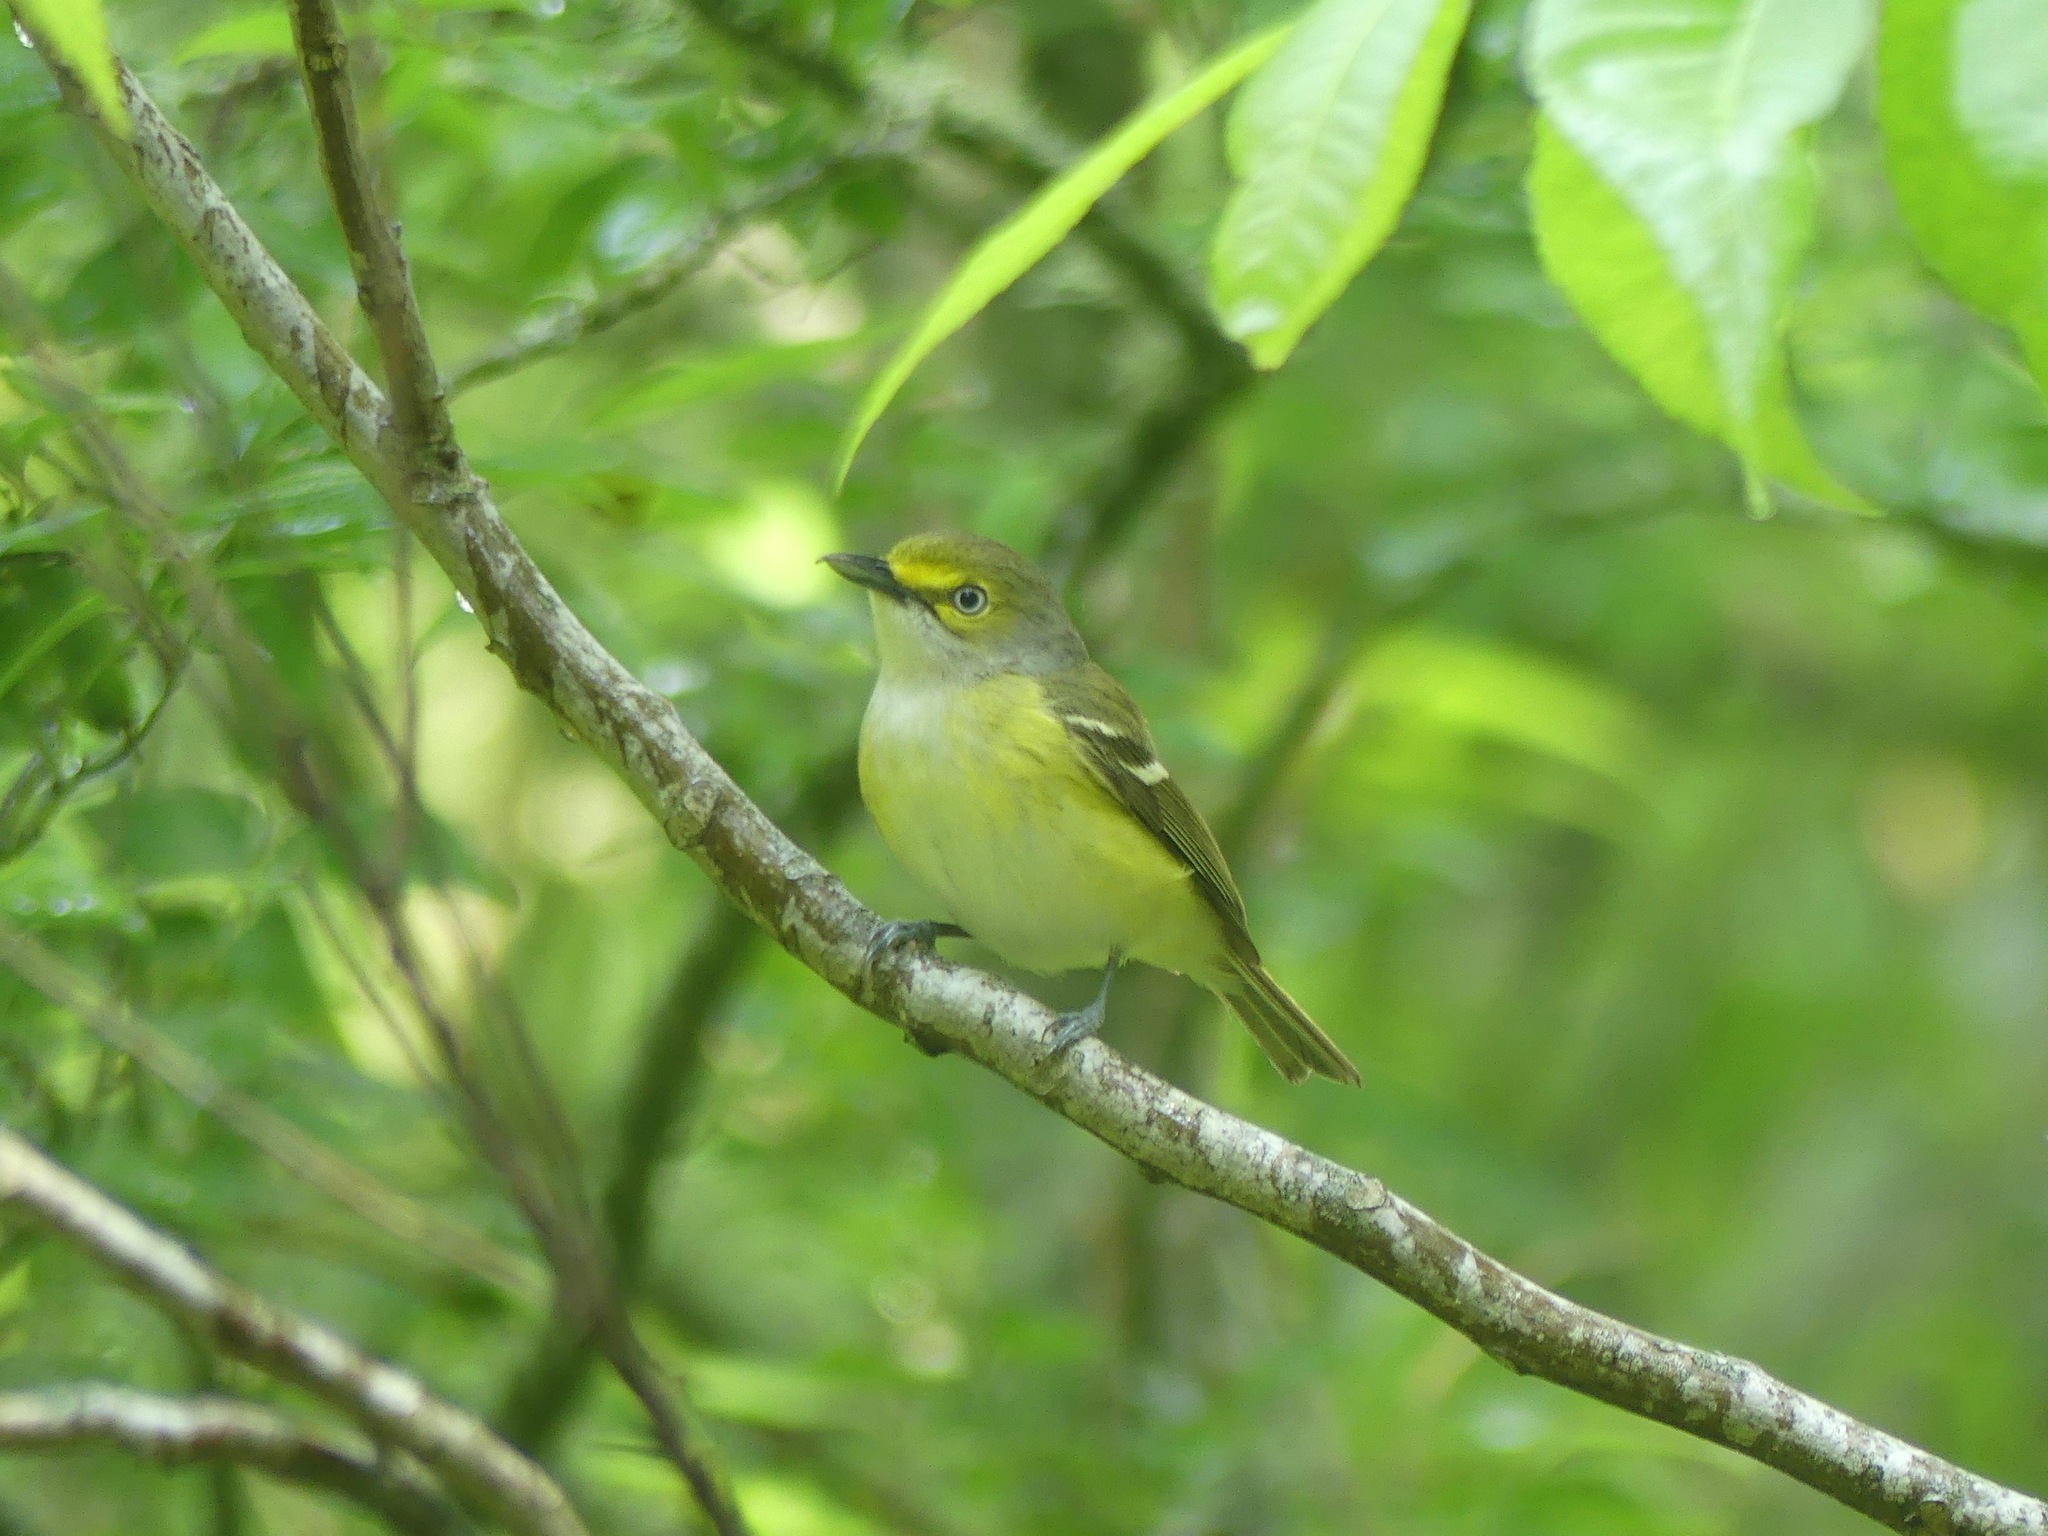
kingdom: Animalia
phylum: Chordata
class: Aves
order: Passeriformes
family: Vireonidae
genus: Vireo
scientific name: Vireo griseus
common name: White-eyed vireo
